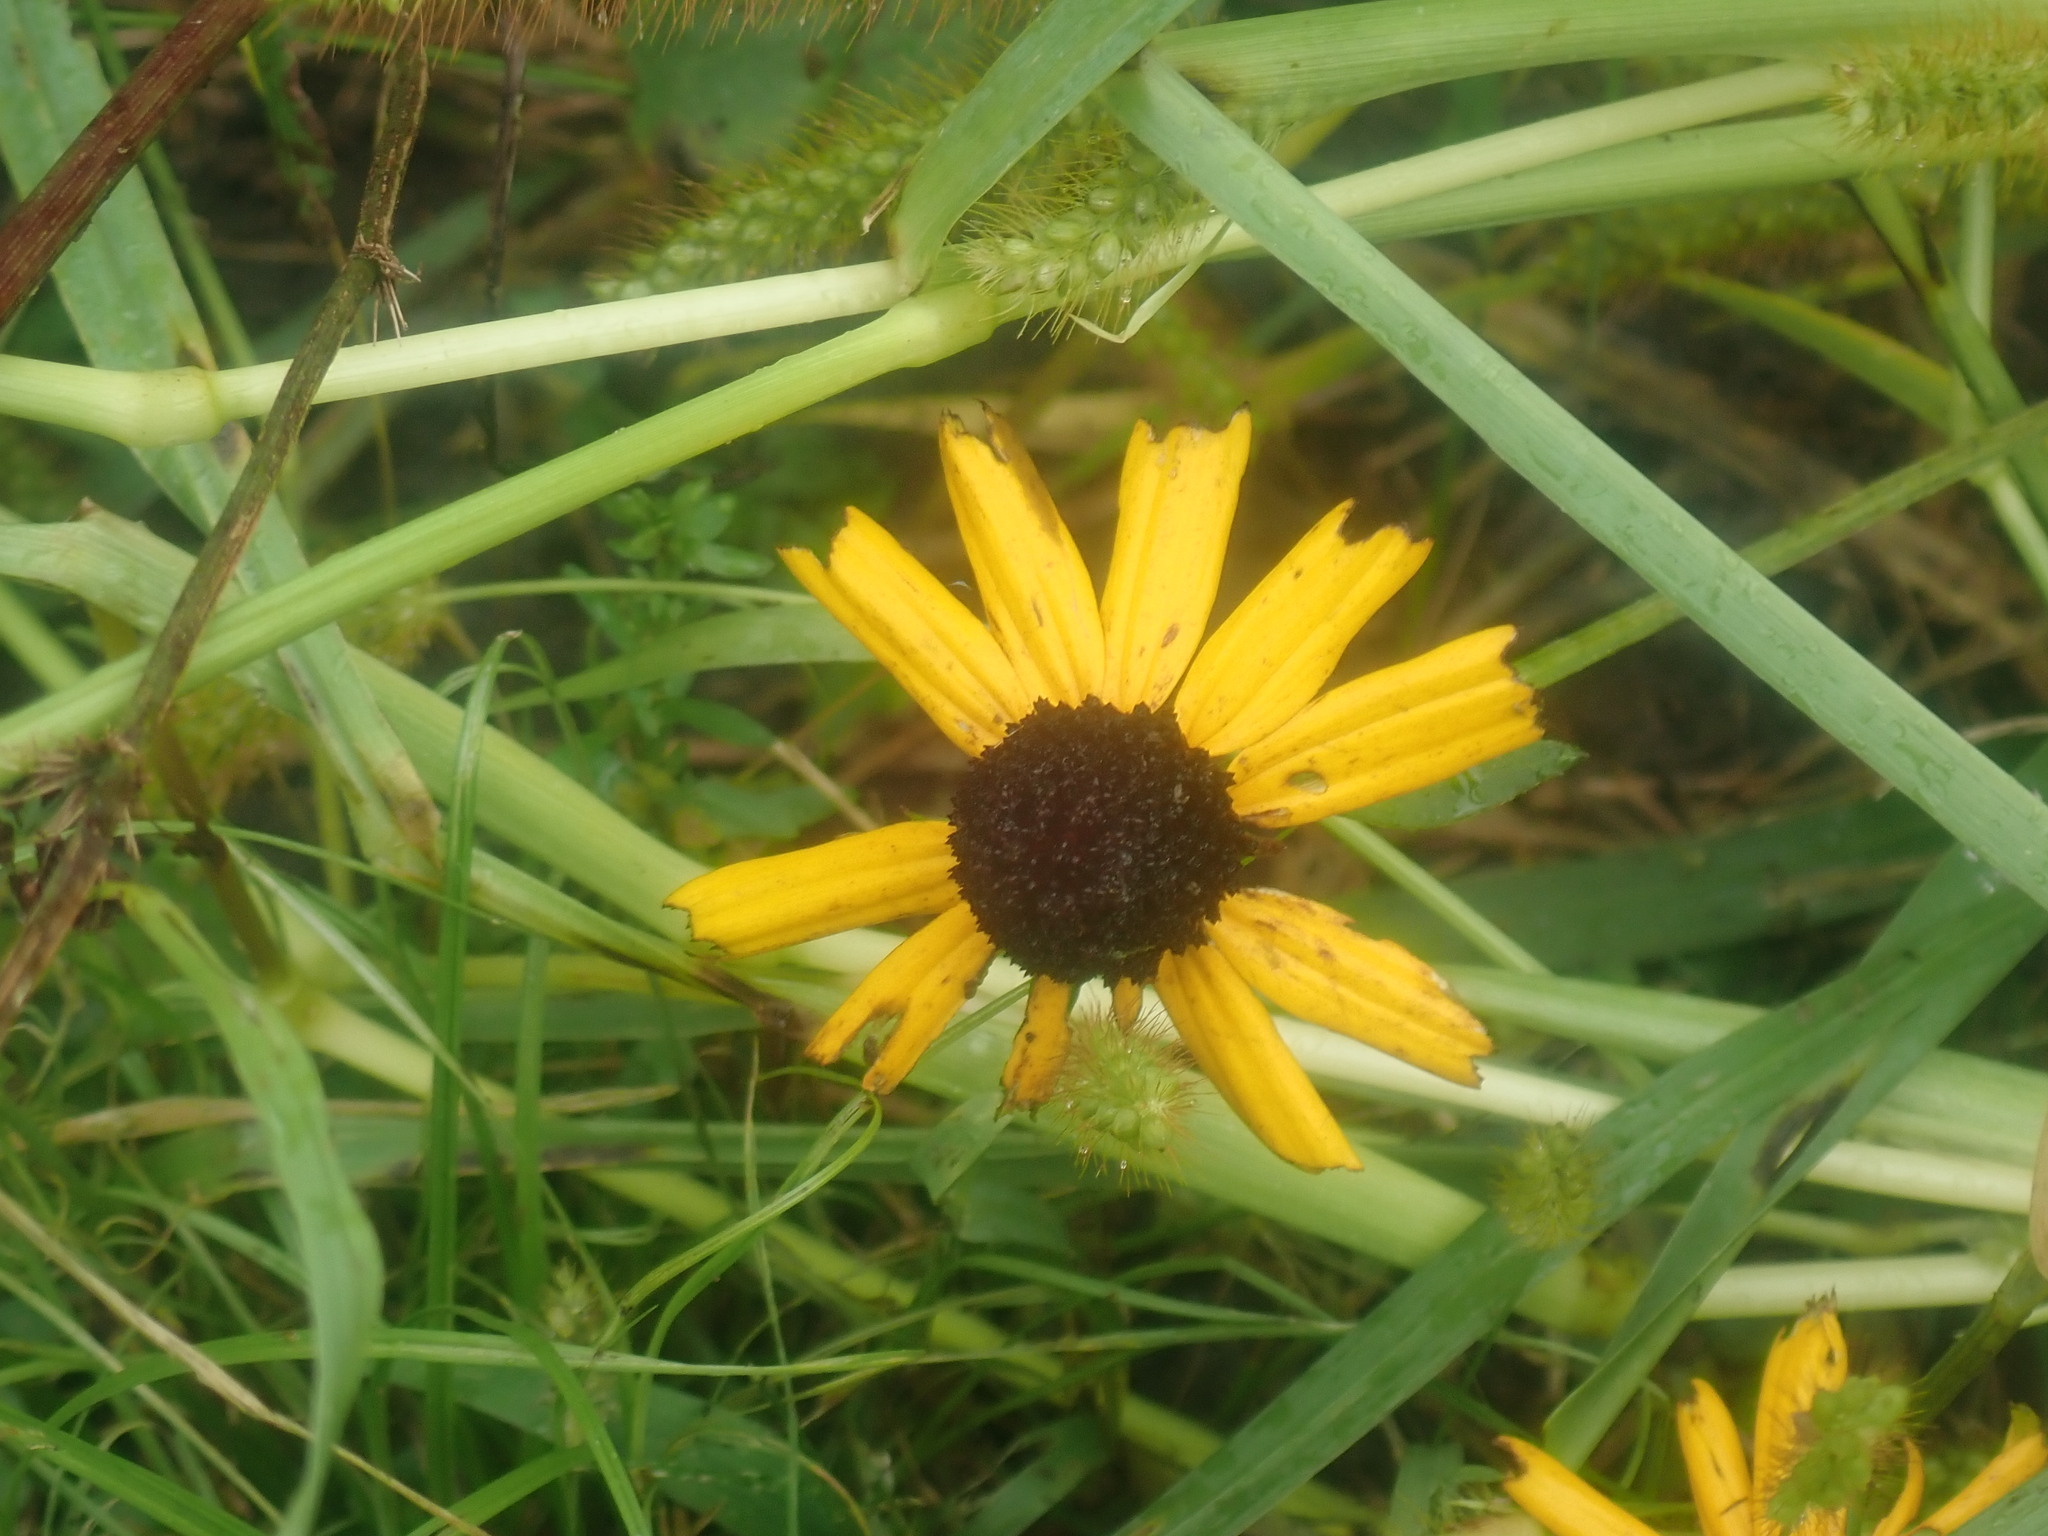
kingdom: Plantae
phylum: Tracheophyta
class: Magnoliopsida
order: Asterales
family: Asteraceae
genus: Rudbeckia
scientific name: Rudbeckia hirta
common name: Black-eyed-susan
